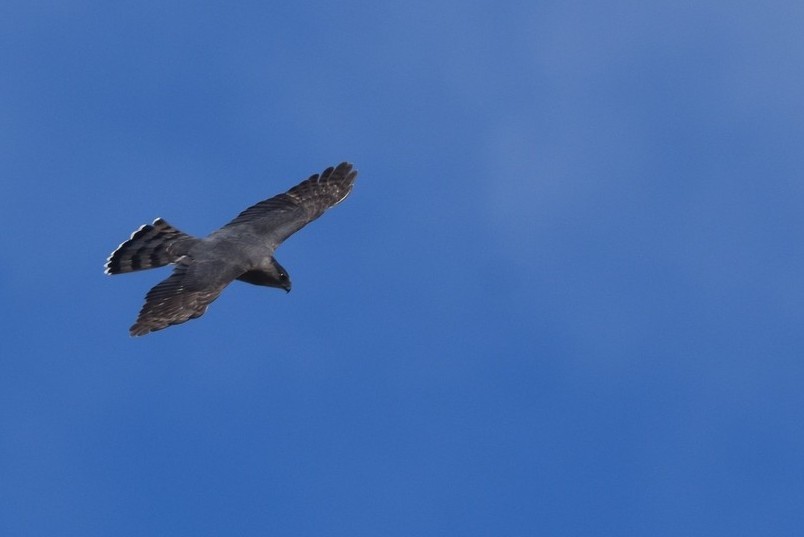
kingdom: Animalia
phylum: Chordata
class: Aves
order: Accipitriformes
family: Accipitridae
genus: Accipiter
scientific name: Accipiter cooperii
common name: Cooper's hawk
